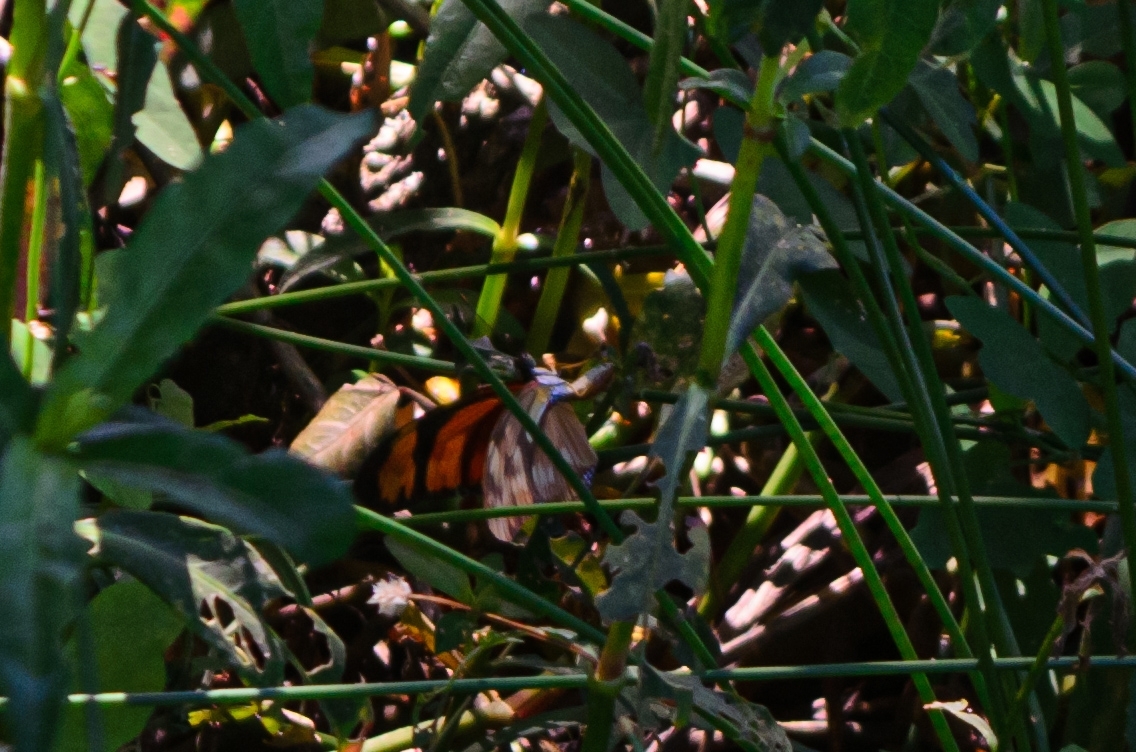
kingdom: Animalia
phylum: Arthropoda
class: Insecta
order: Lepidoptera
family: Nymphalidae
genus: Dryas
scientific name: Dryas iulia
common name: Flambeau
